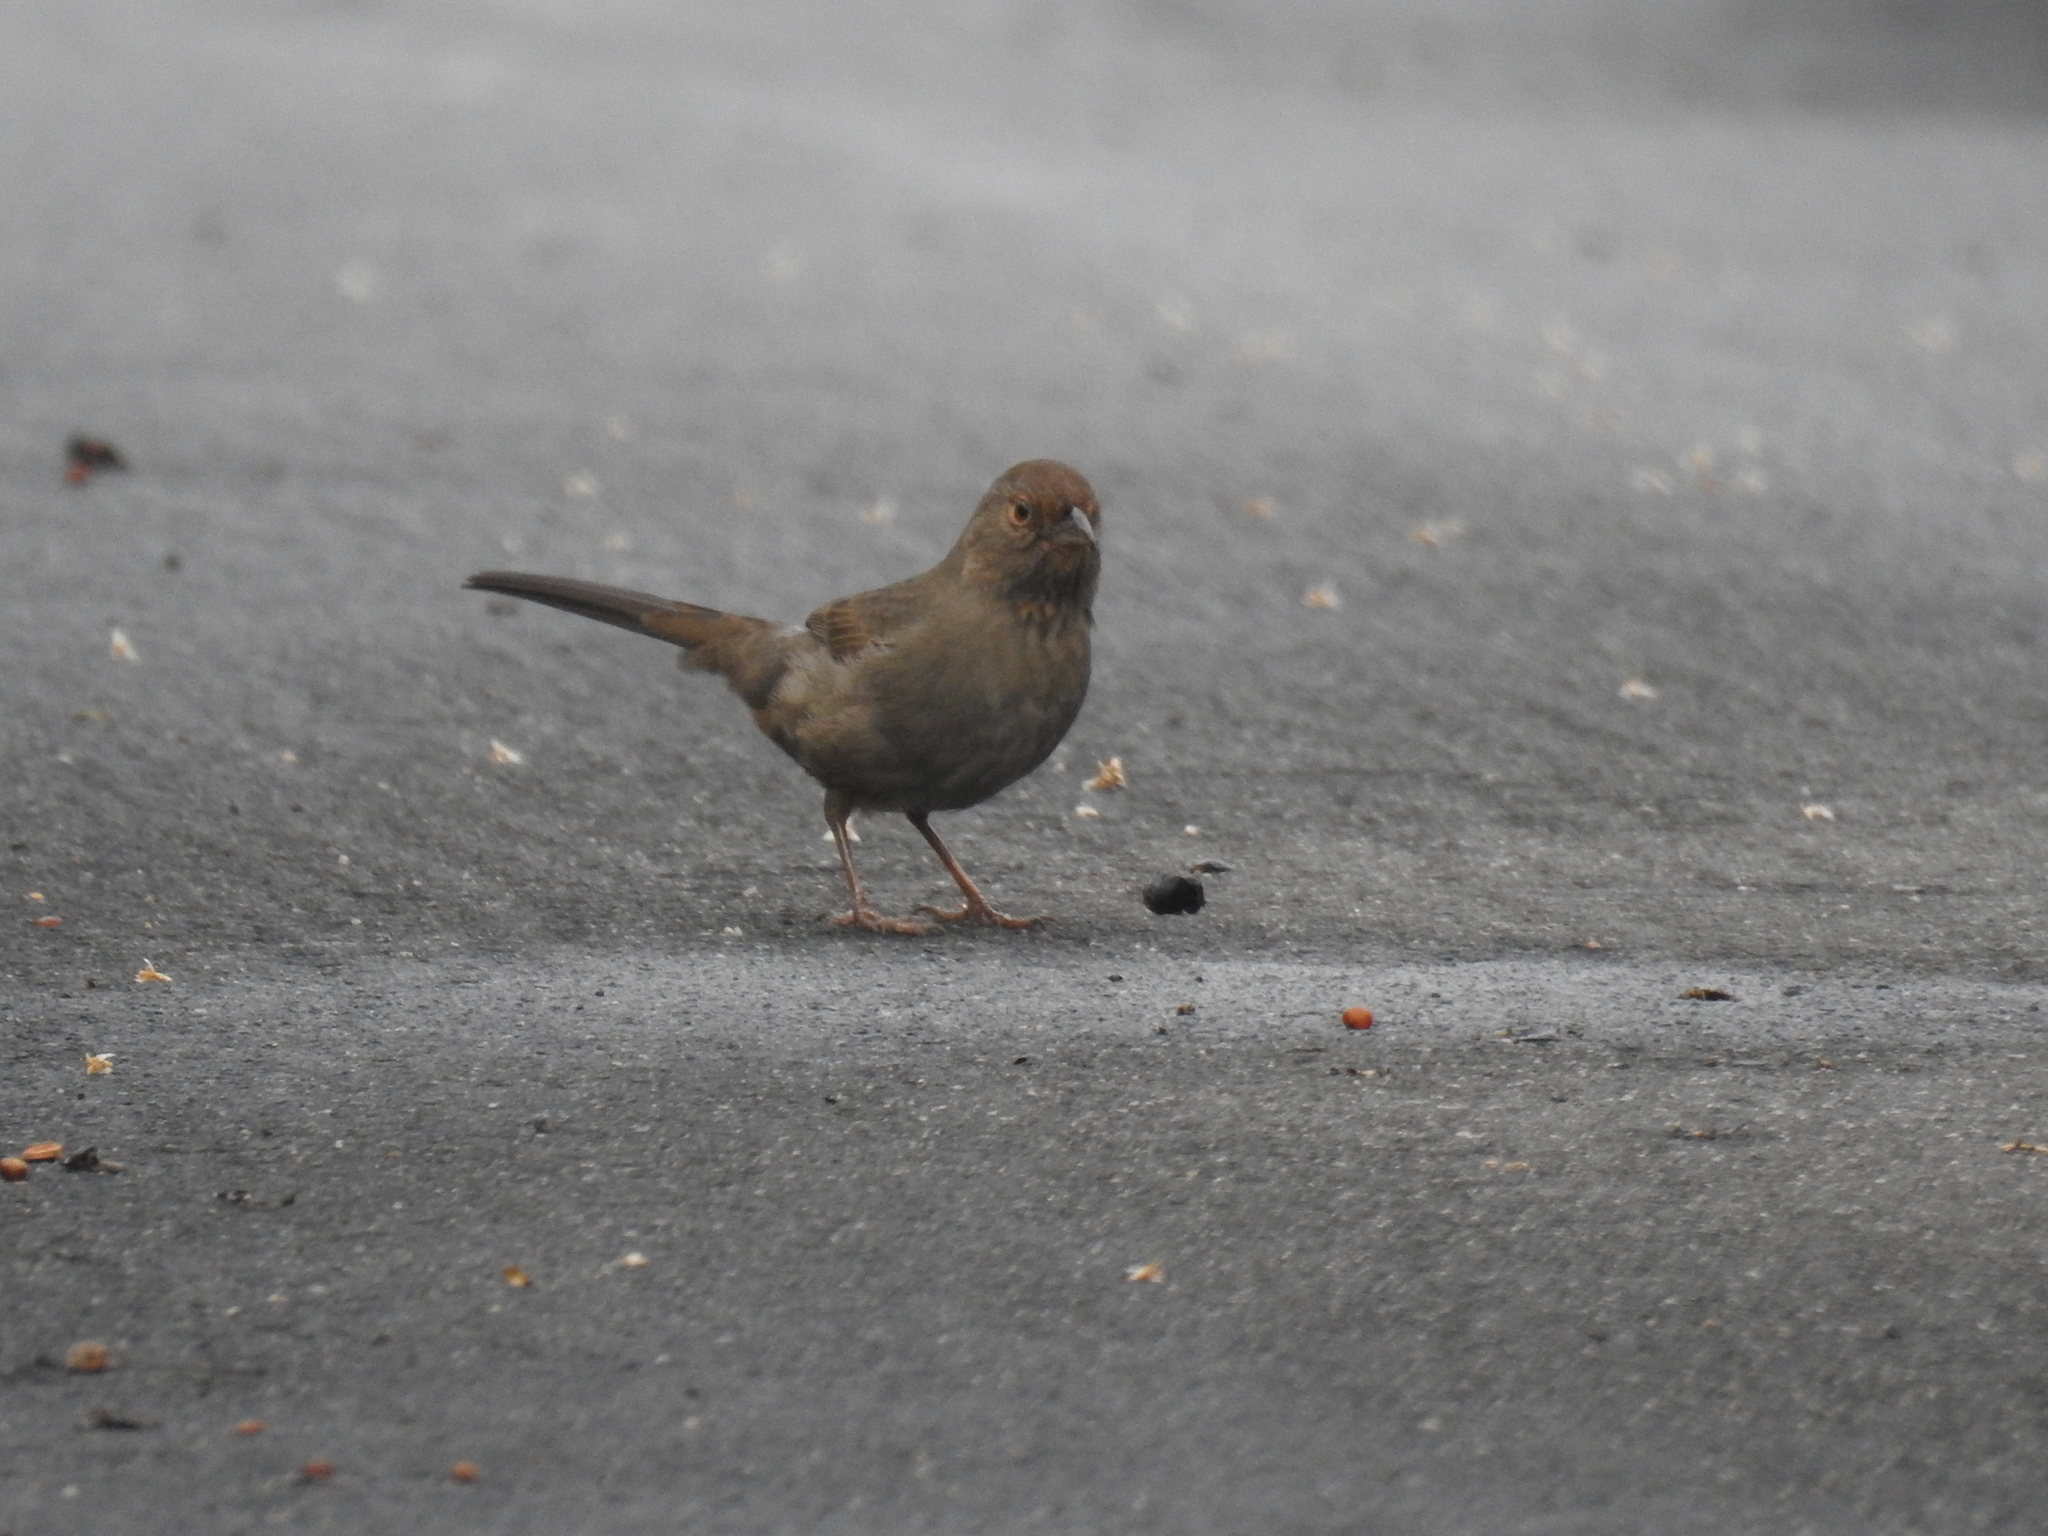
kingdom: Animalia
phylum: Chordata
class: Aves
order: Passeriformes
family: Passerellidae
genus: Melozone
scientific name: Melozone crissalis
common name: California towhee
